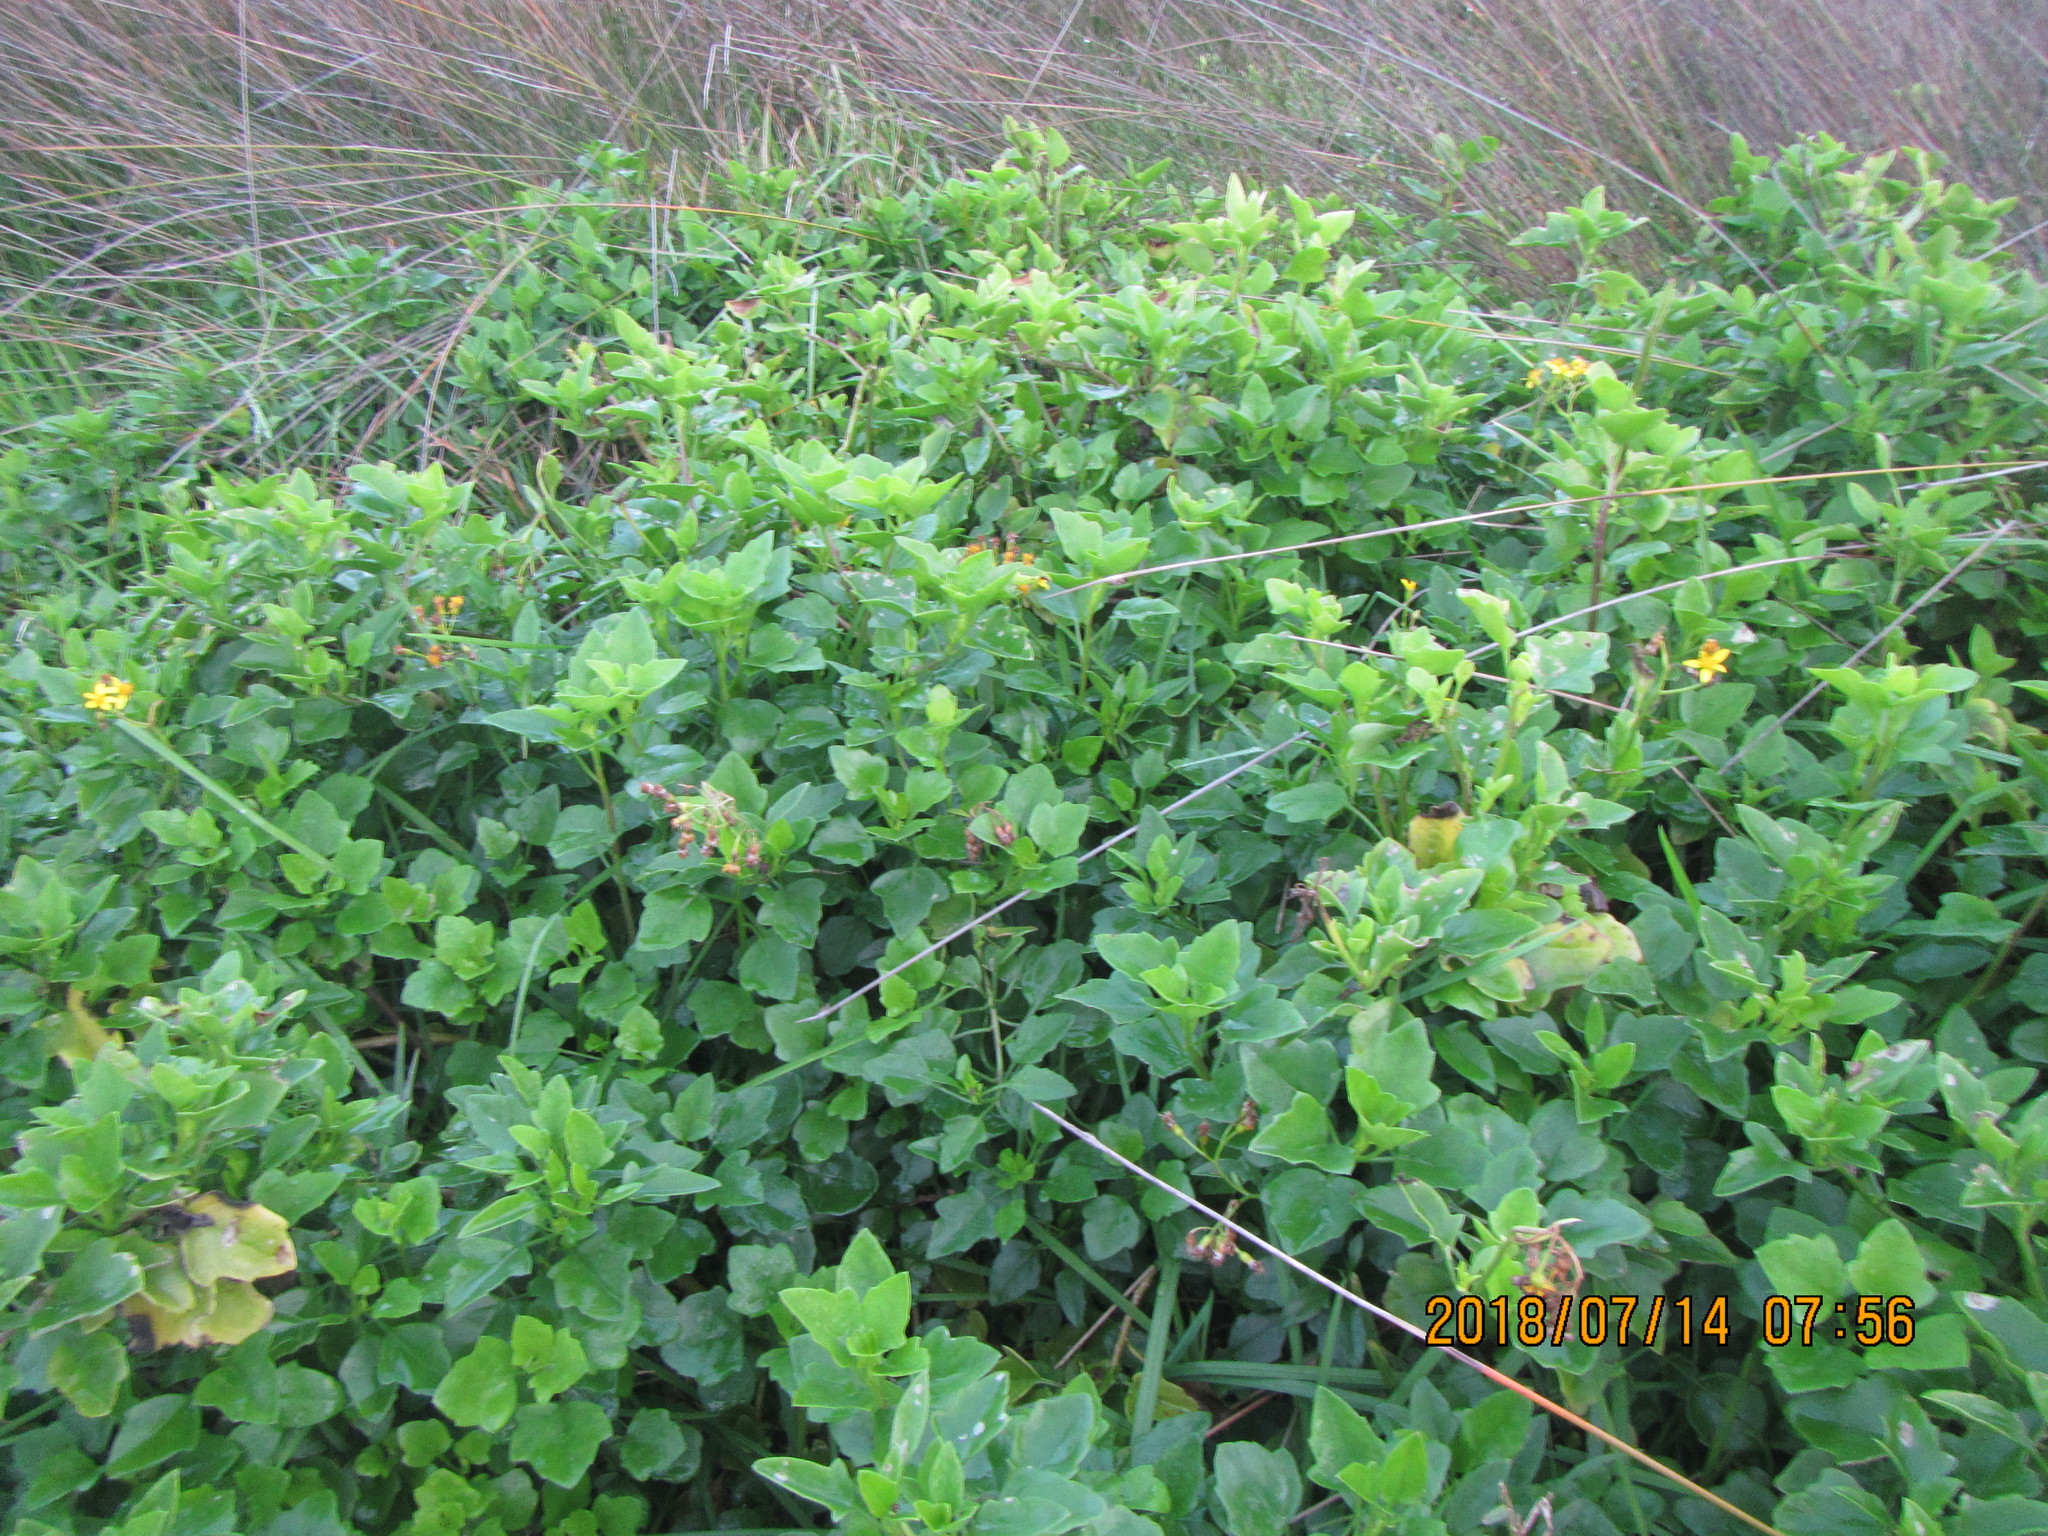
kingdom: Plantae
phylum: Tracheophyta
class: Magnoliopsida
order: Asterales
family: Asteraceae
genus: Senecio
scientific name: Senecio angulatus
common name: Climbing groundsel
